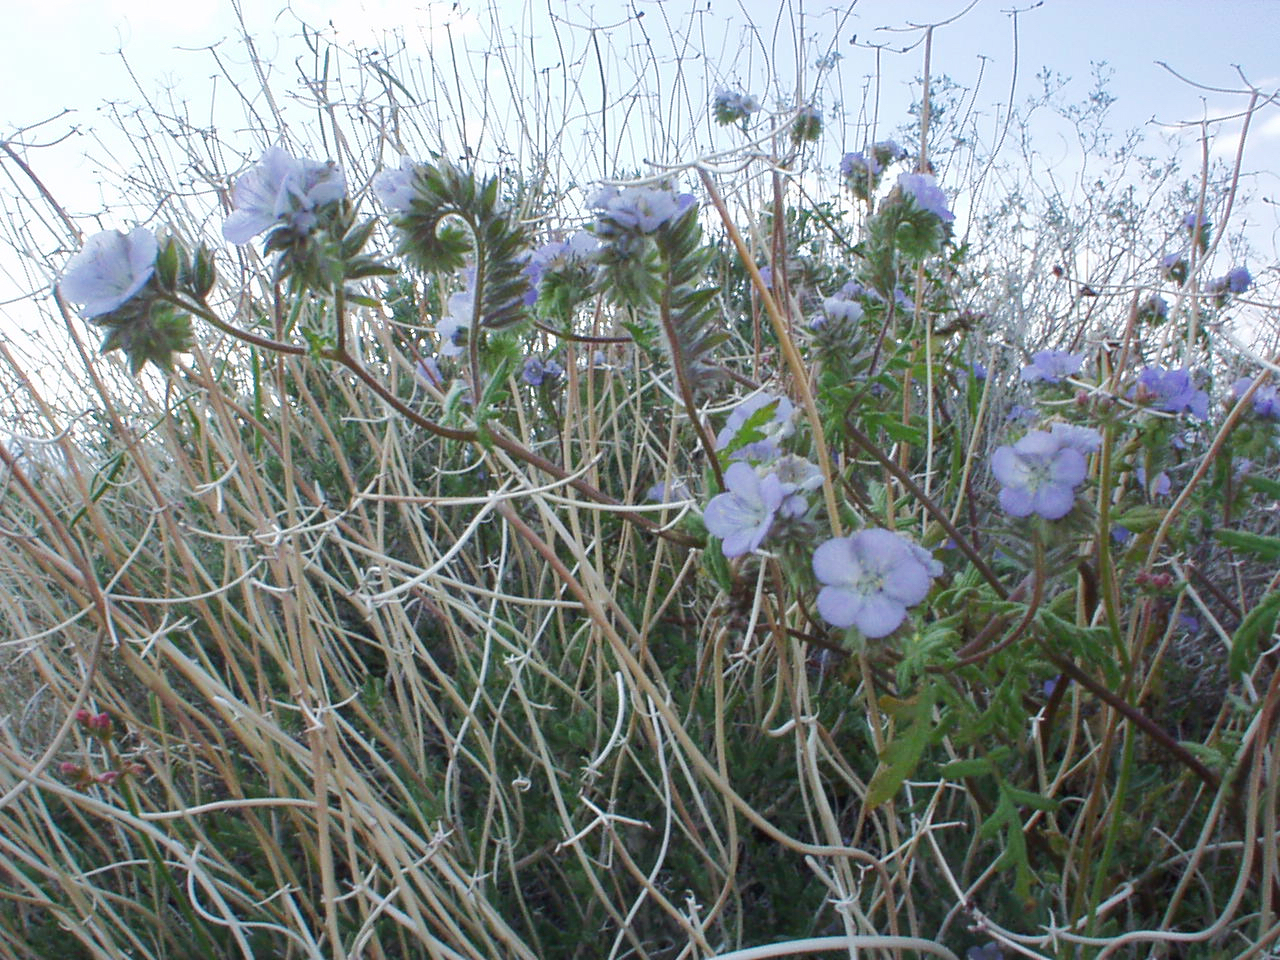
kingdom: Plantae
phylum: Tracheophyta
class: Magnoliopsida
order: Boraginales
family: Hydrophyllaceae
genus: Phacelia
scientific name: Phacelia distans
